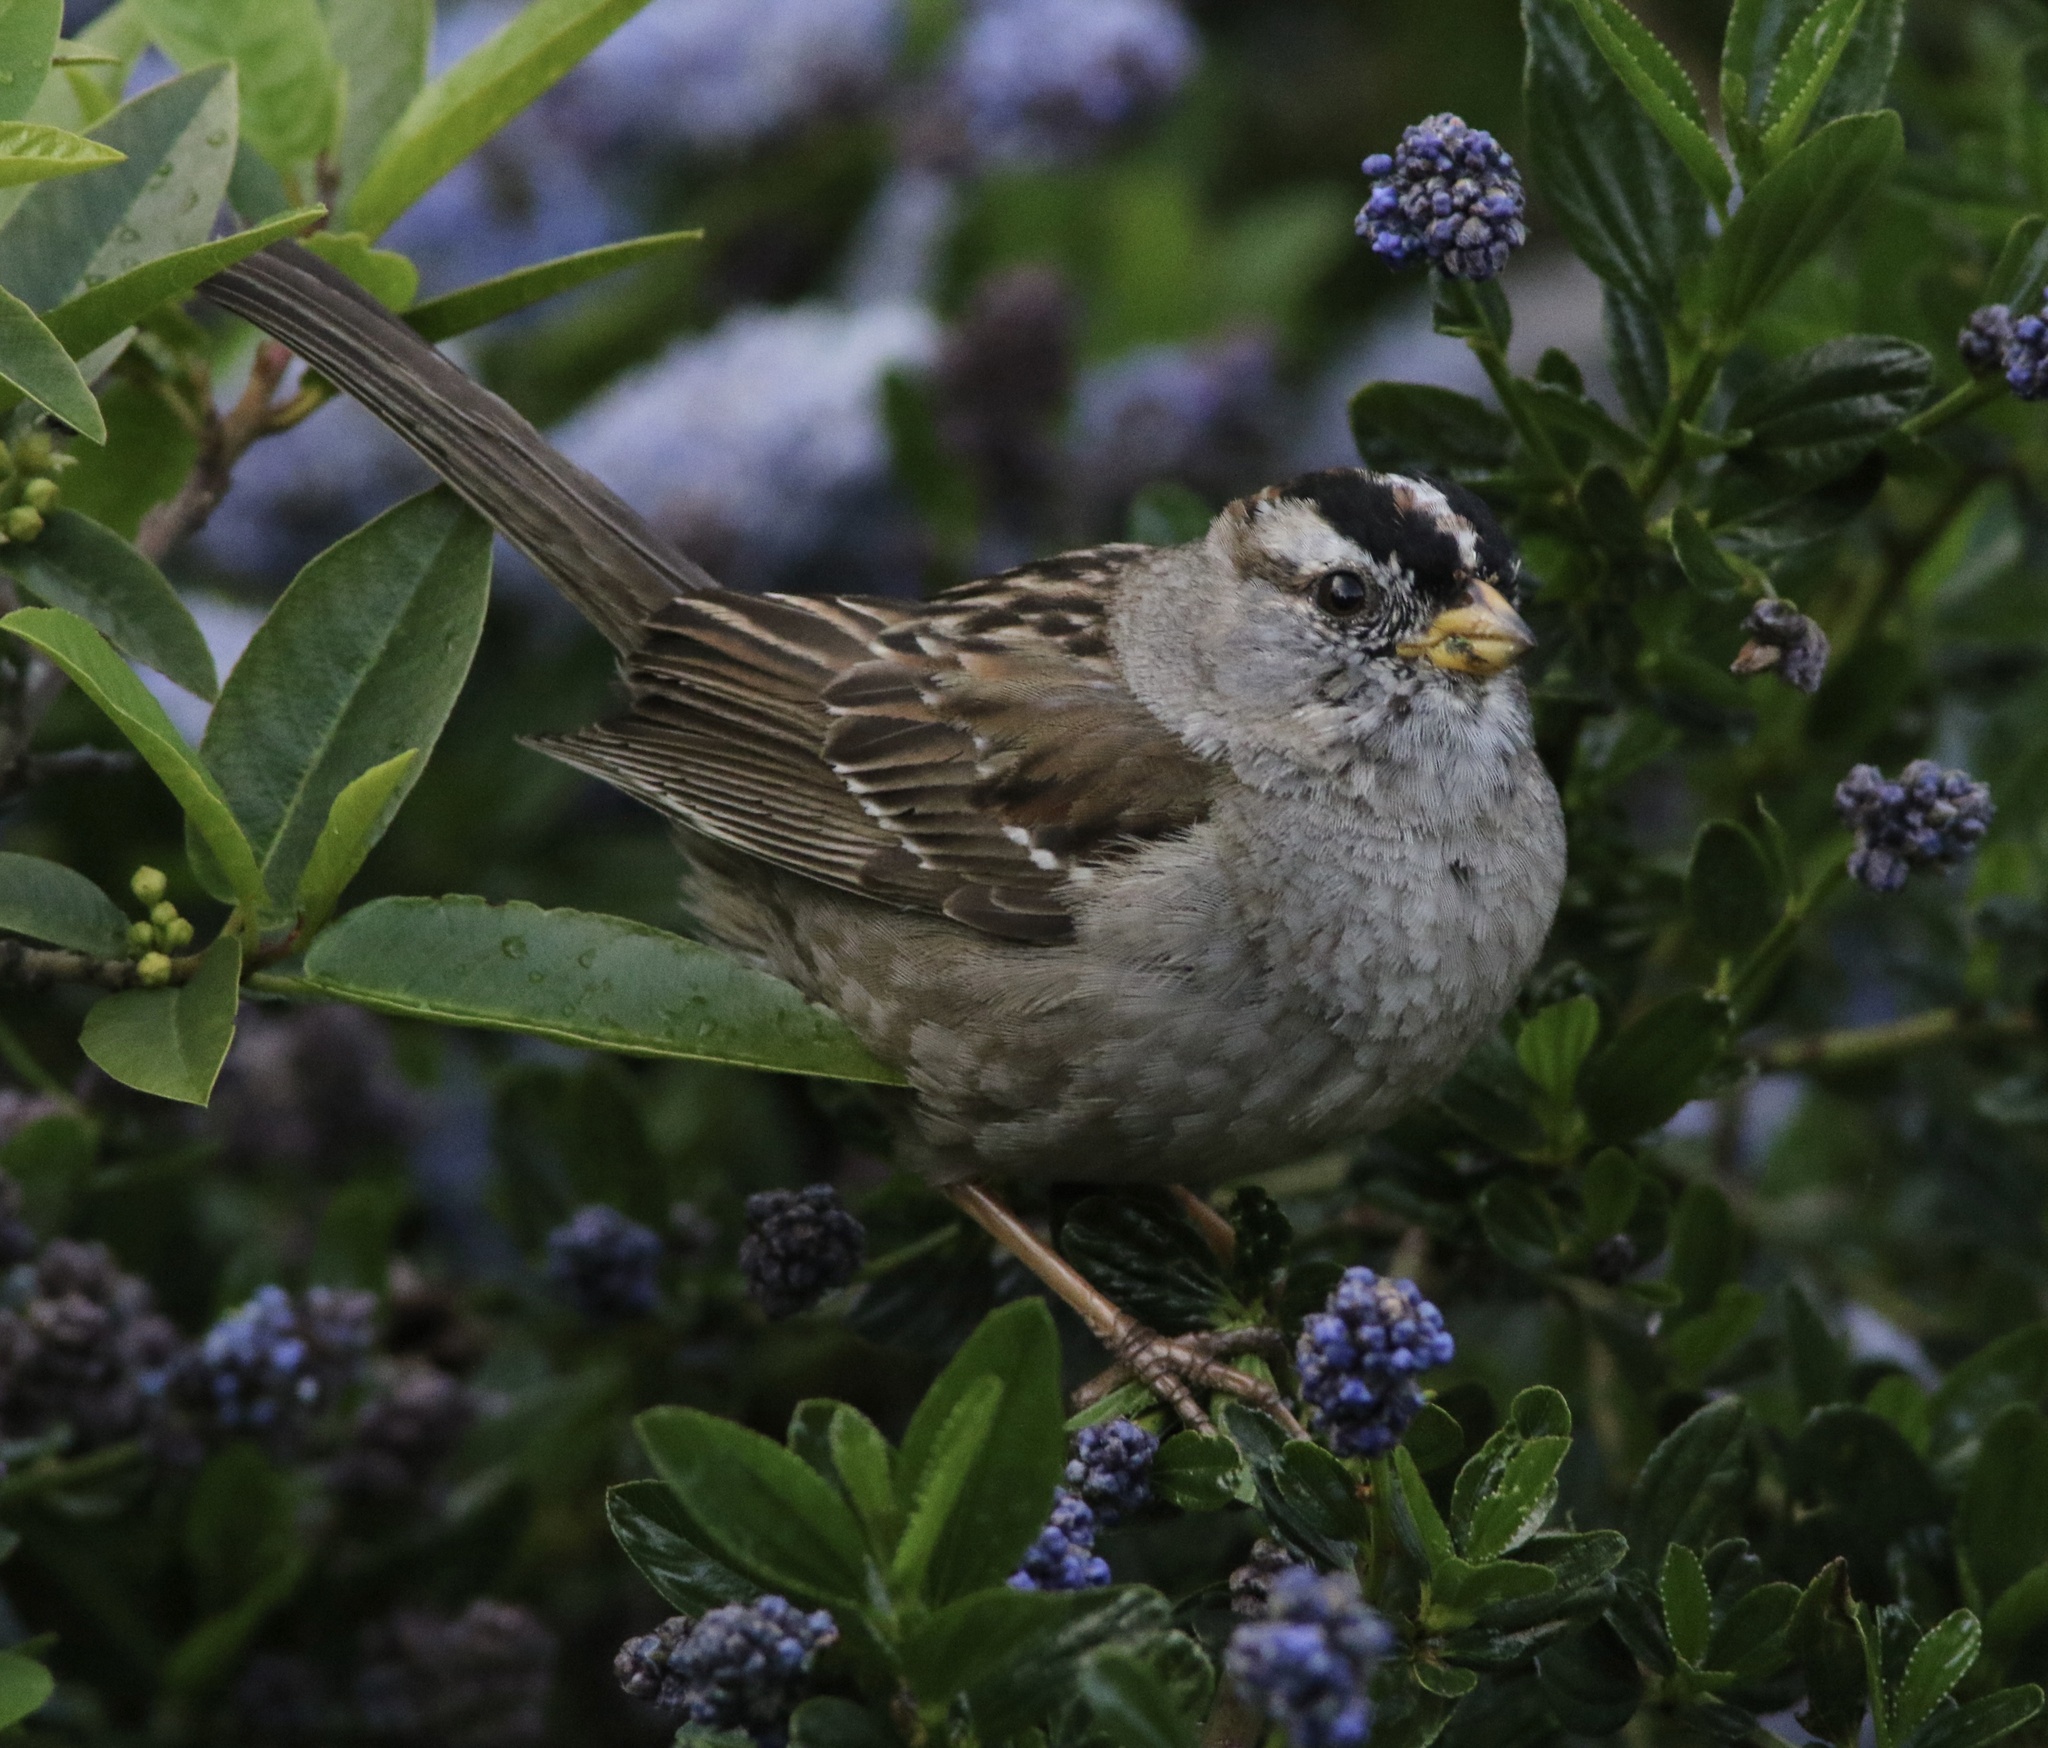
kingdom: Animalia
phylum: Chordata
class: Aves
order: Passeriformes
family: Passerellidae
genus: Zonotrichia
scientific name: Zonotrichia leucophrys
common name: White-crowned sparrow
